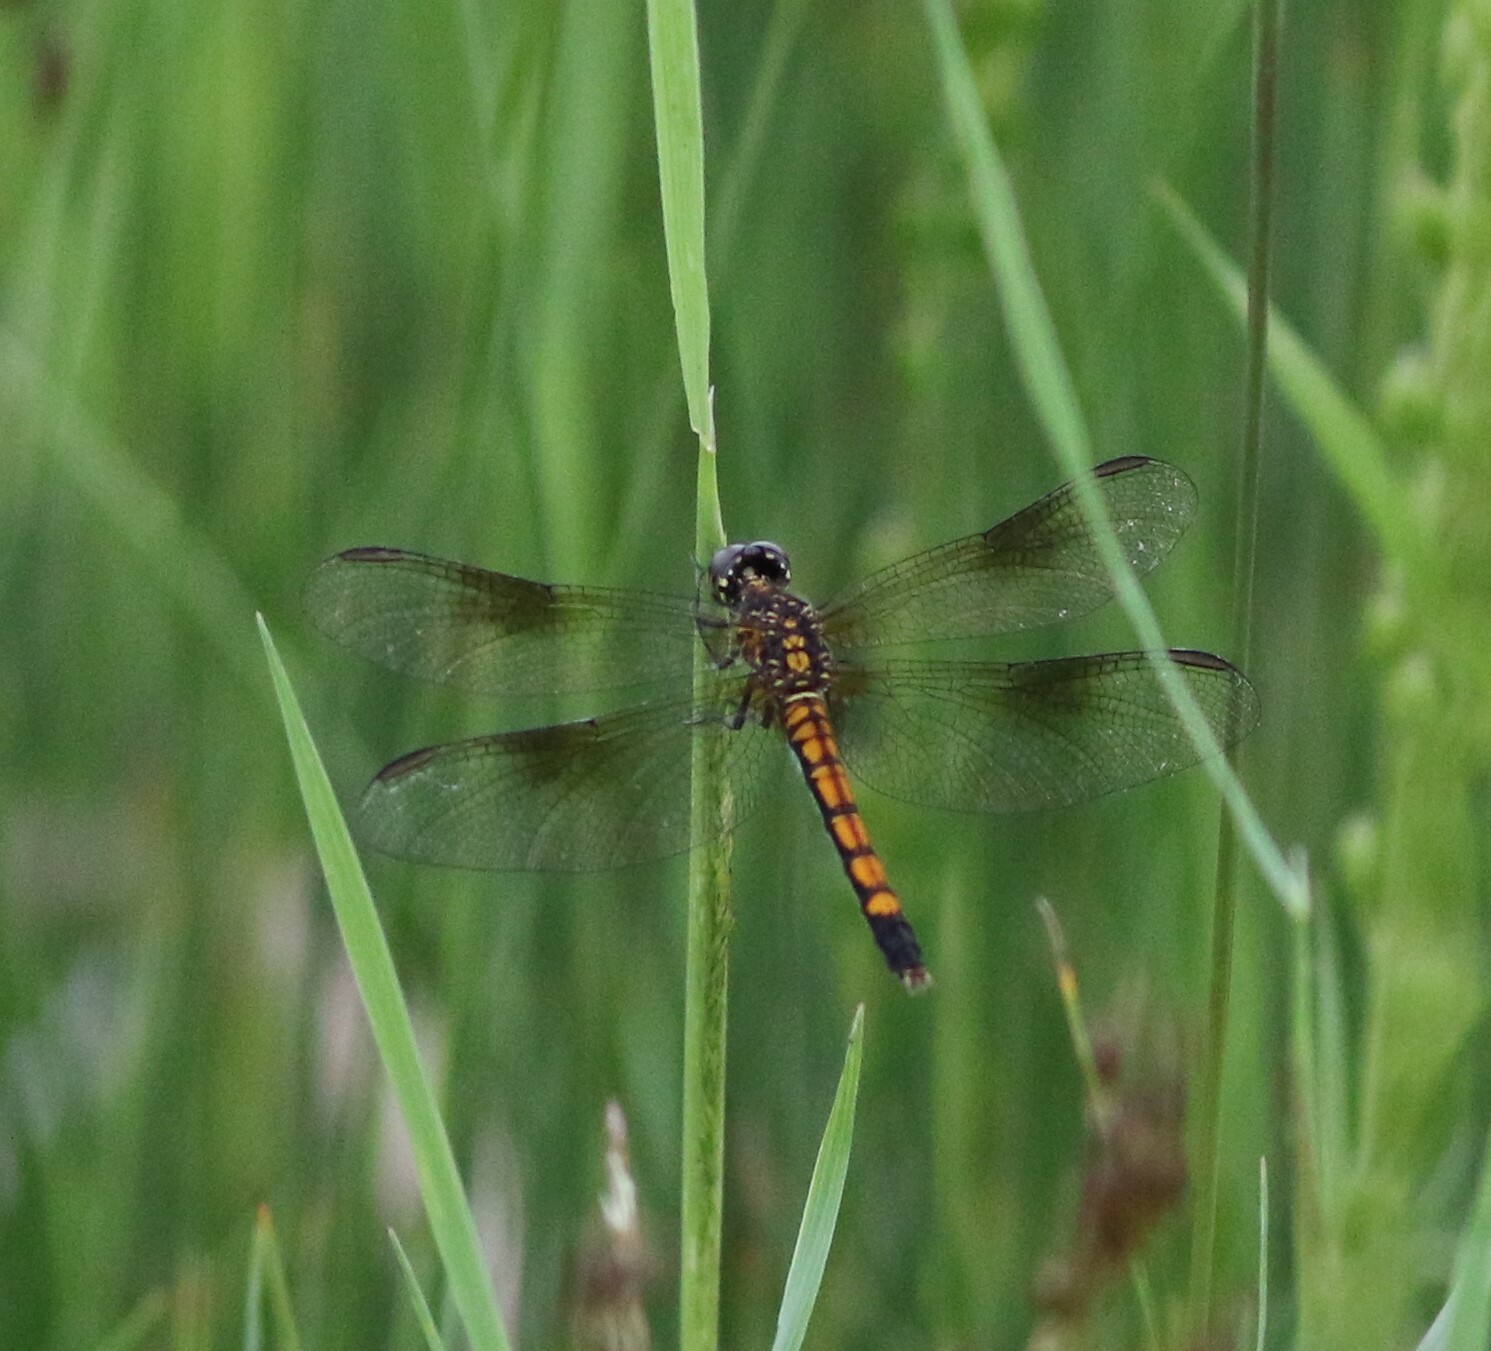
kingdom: Animalia
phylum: Arthropoda
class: Insecta
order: Odonata
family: Libellulidae
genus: Erythrodiplax
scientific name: Erythrodiplax berenice
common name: Seaside dragonlet
